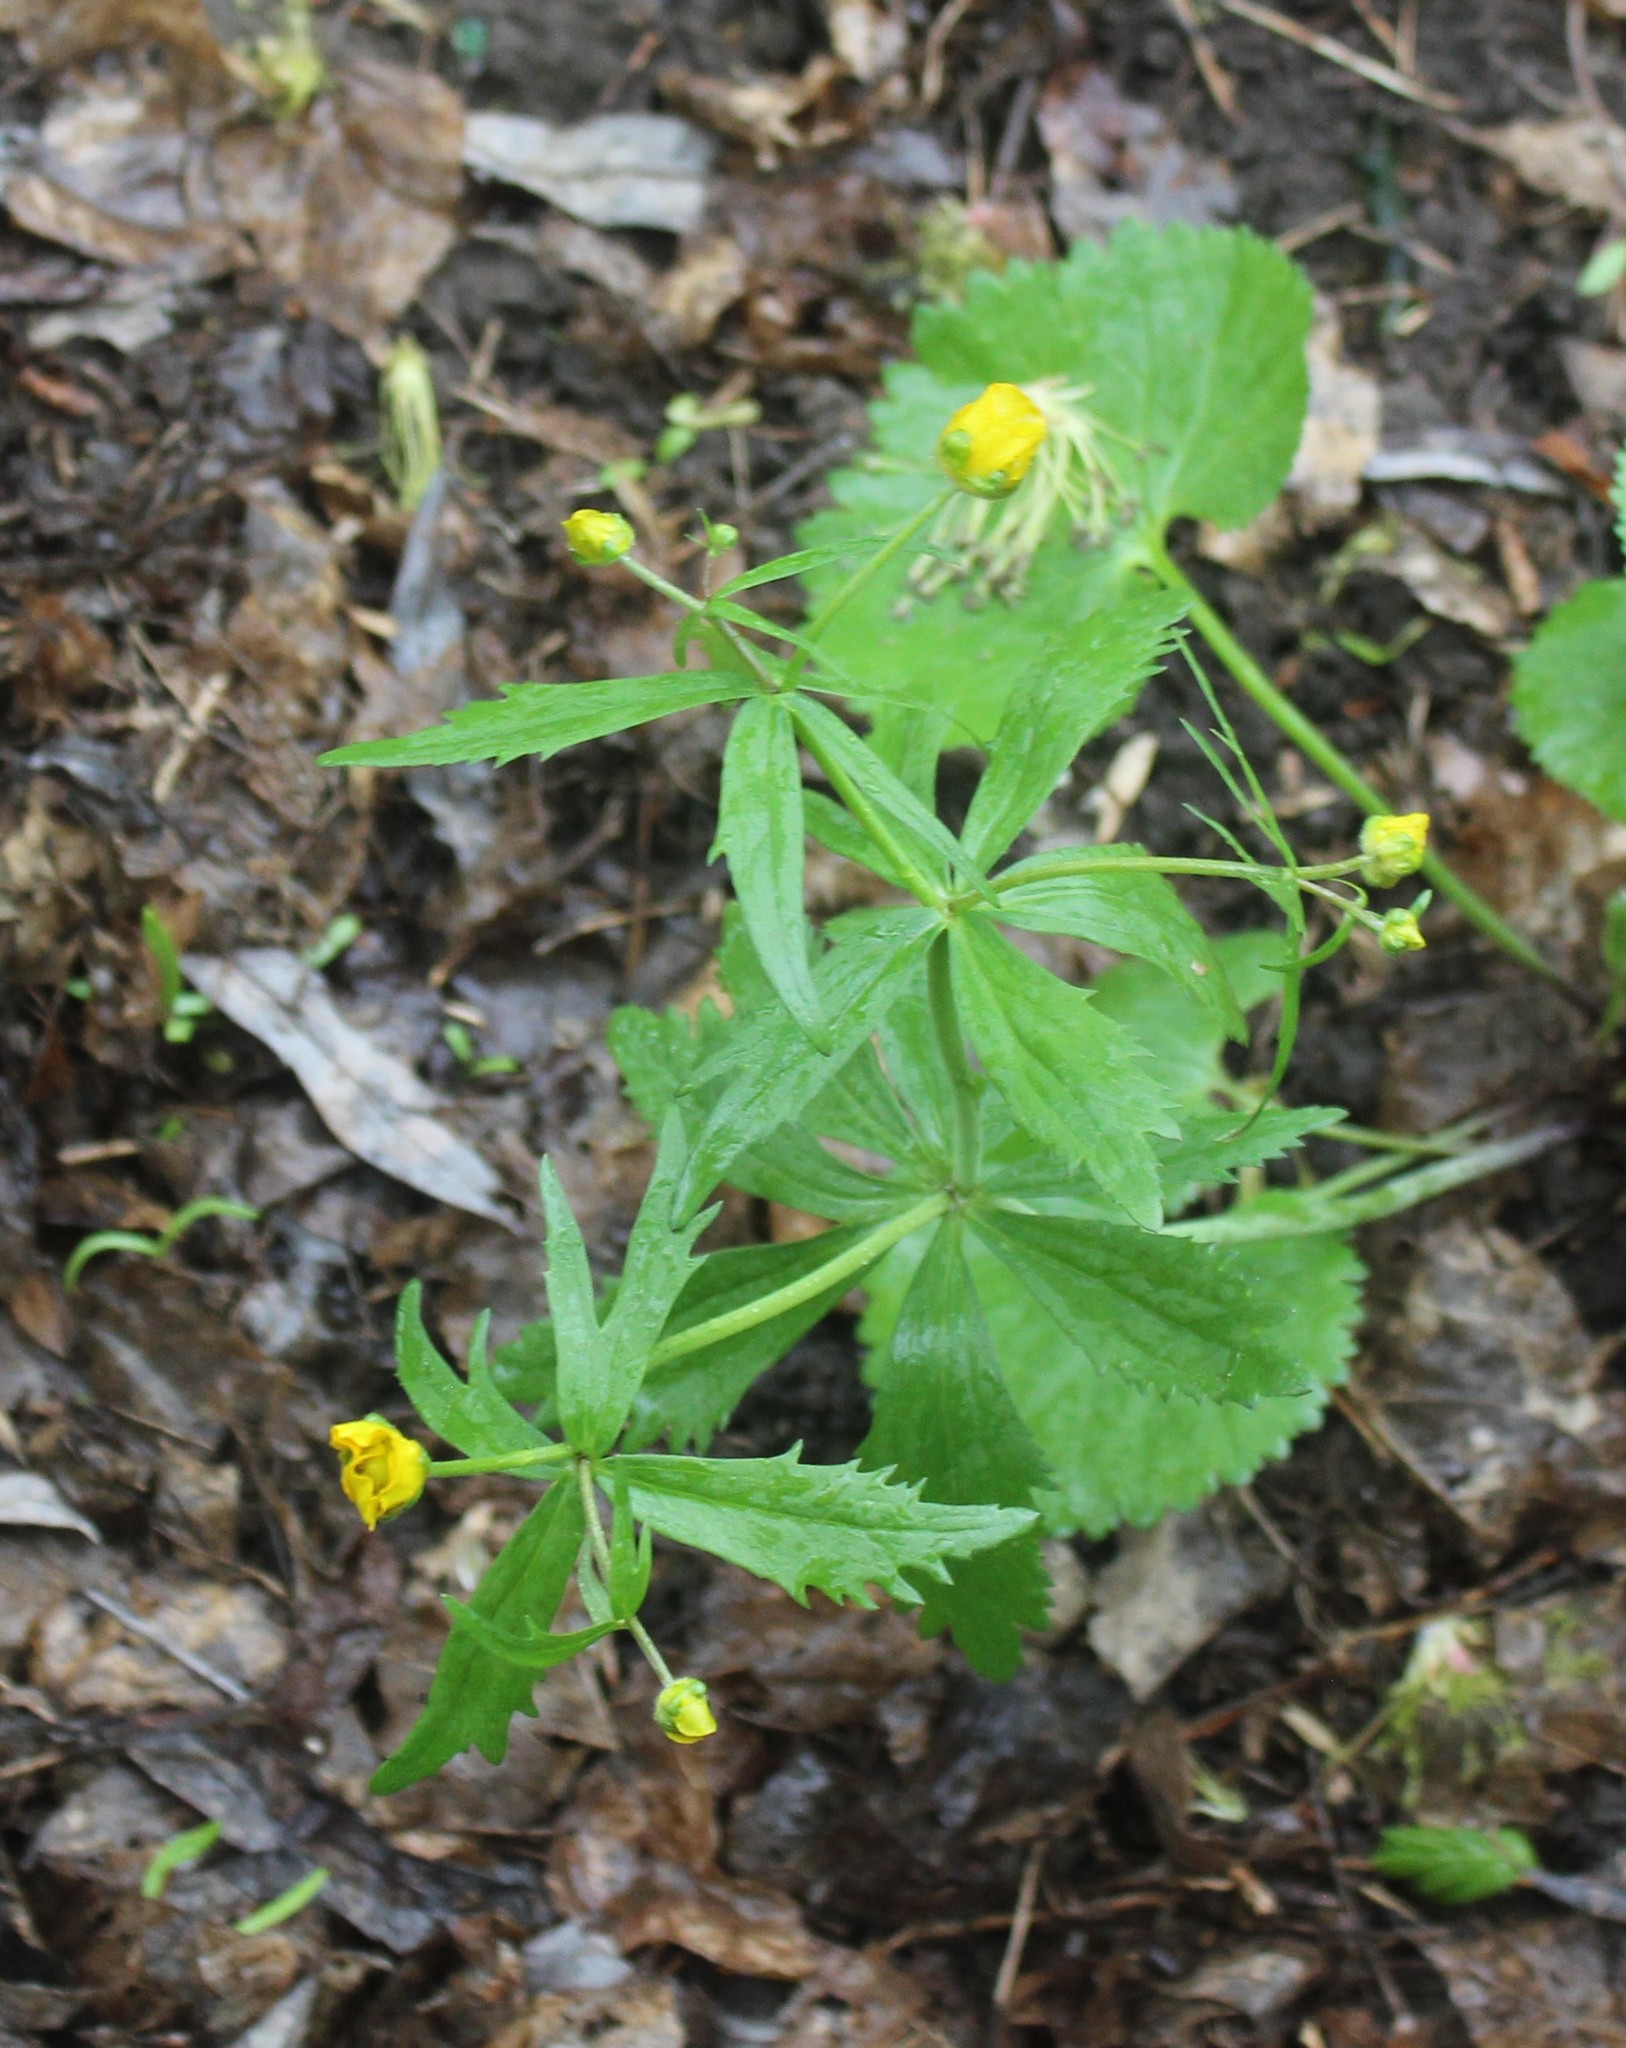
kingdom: Plantae
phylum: Tracheophyta
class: Magnoliopsida
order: Ranunculales
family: Ranunculaceae
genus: Ranunculus
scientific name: Ranunculus cassubicus
